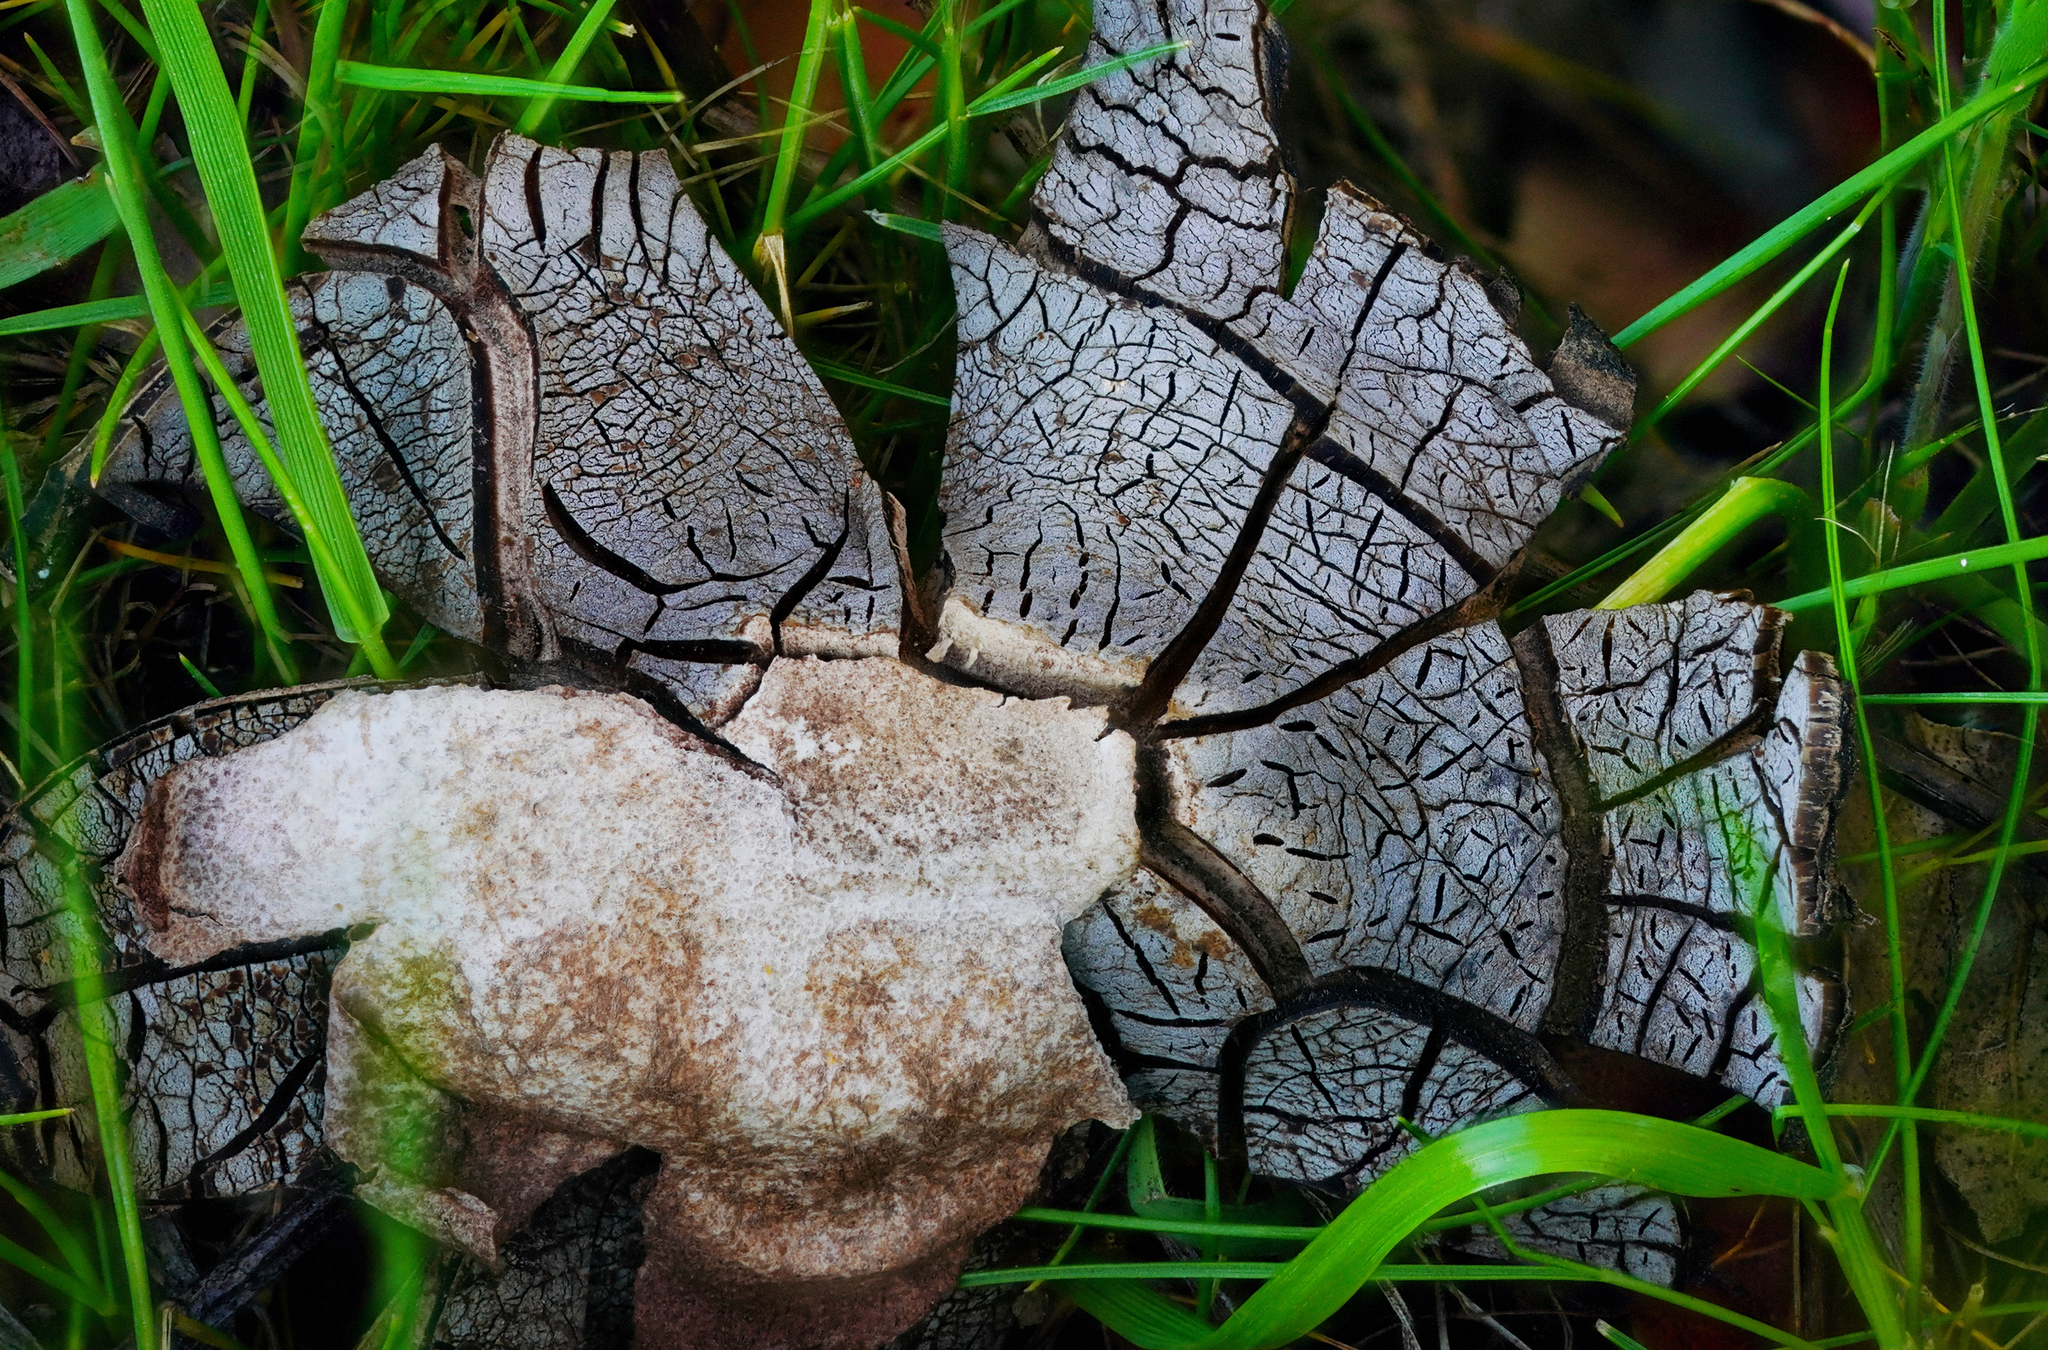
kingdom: Fungi
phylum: Basidiomycota
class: Agaricomycetes
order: Boletales
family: Diplocystidiaceae
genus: Astraeus
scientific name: Astraeus pteridis
